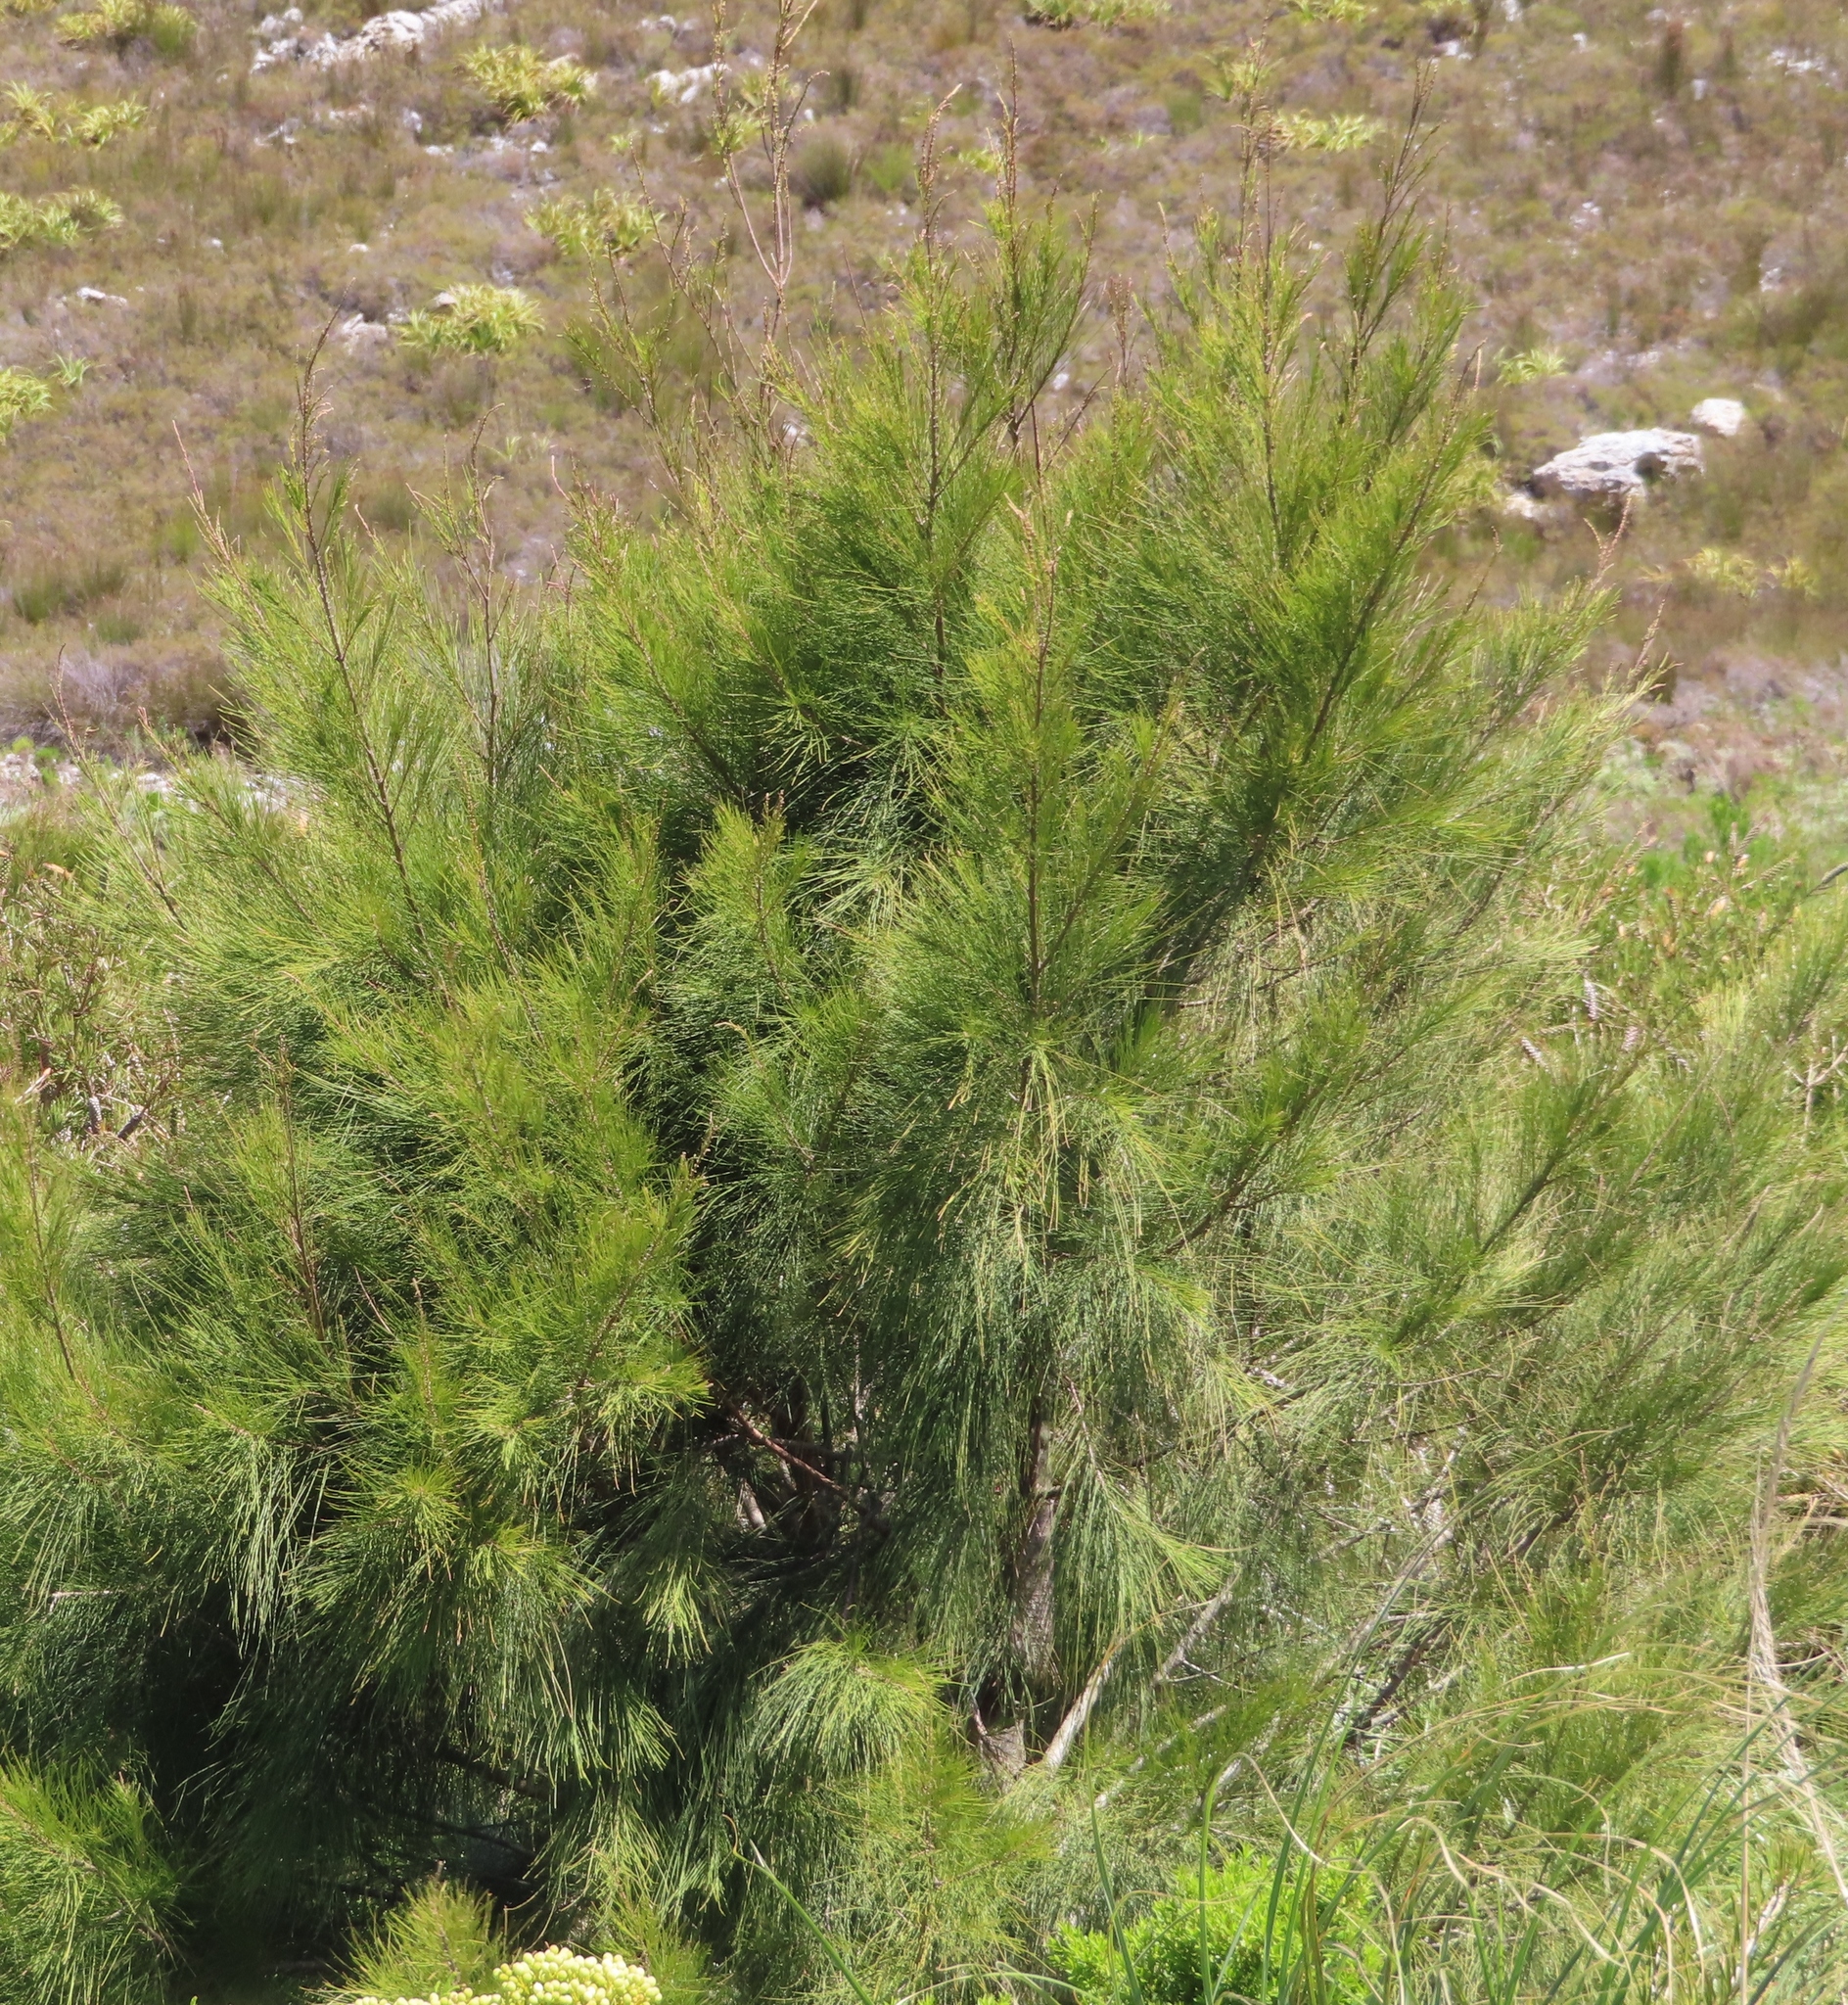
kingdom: Plantae
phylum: Tracheophyta
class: Magnoliopsida
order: Fagales
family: Casuarinaceae
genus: Casuarina
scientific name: Casuarina cunninghamiana
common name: River sheoak
